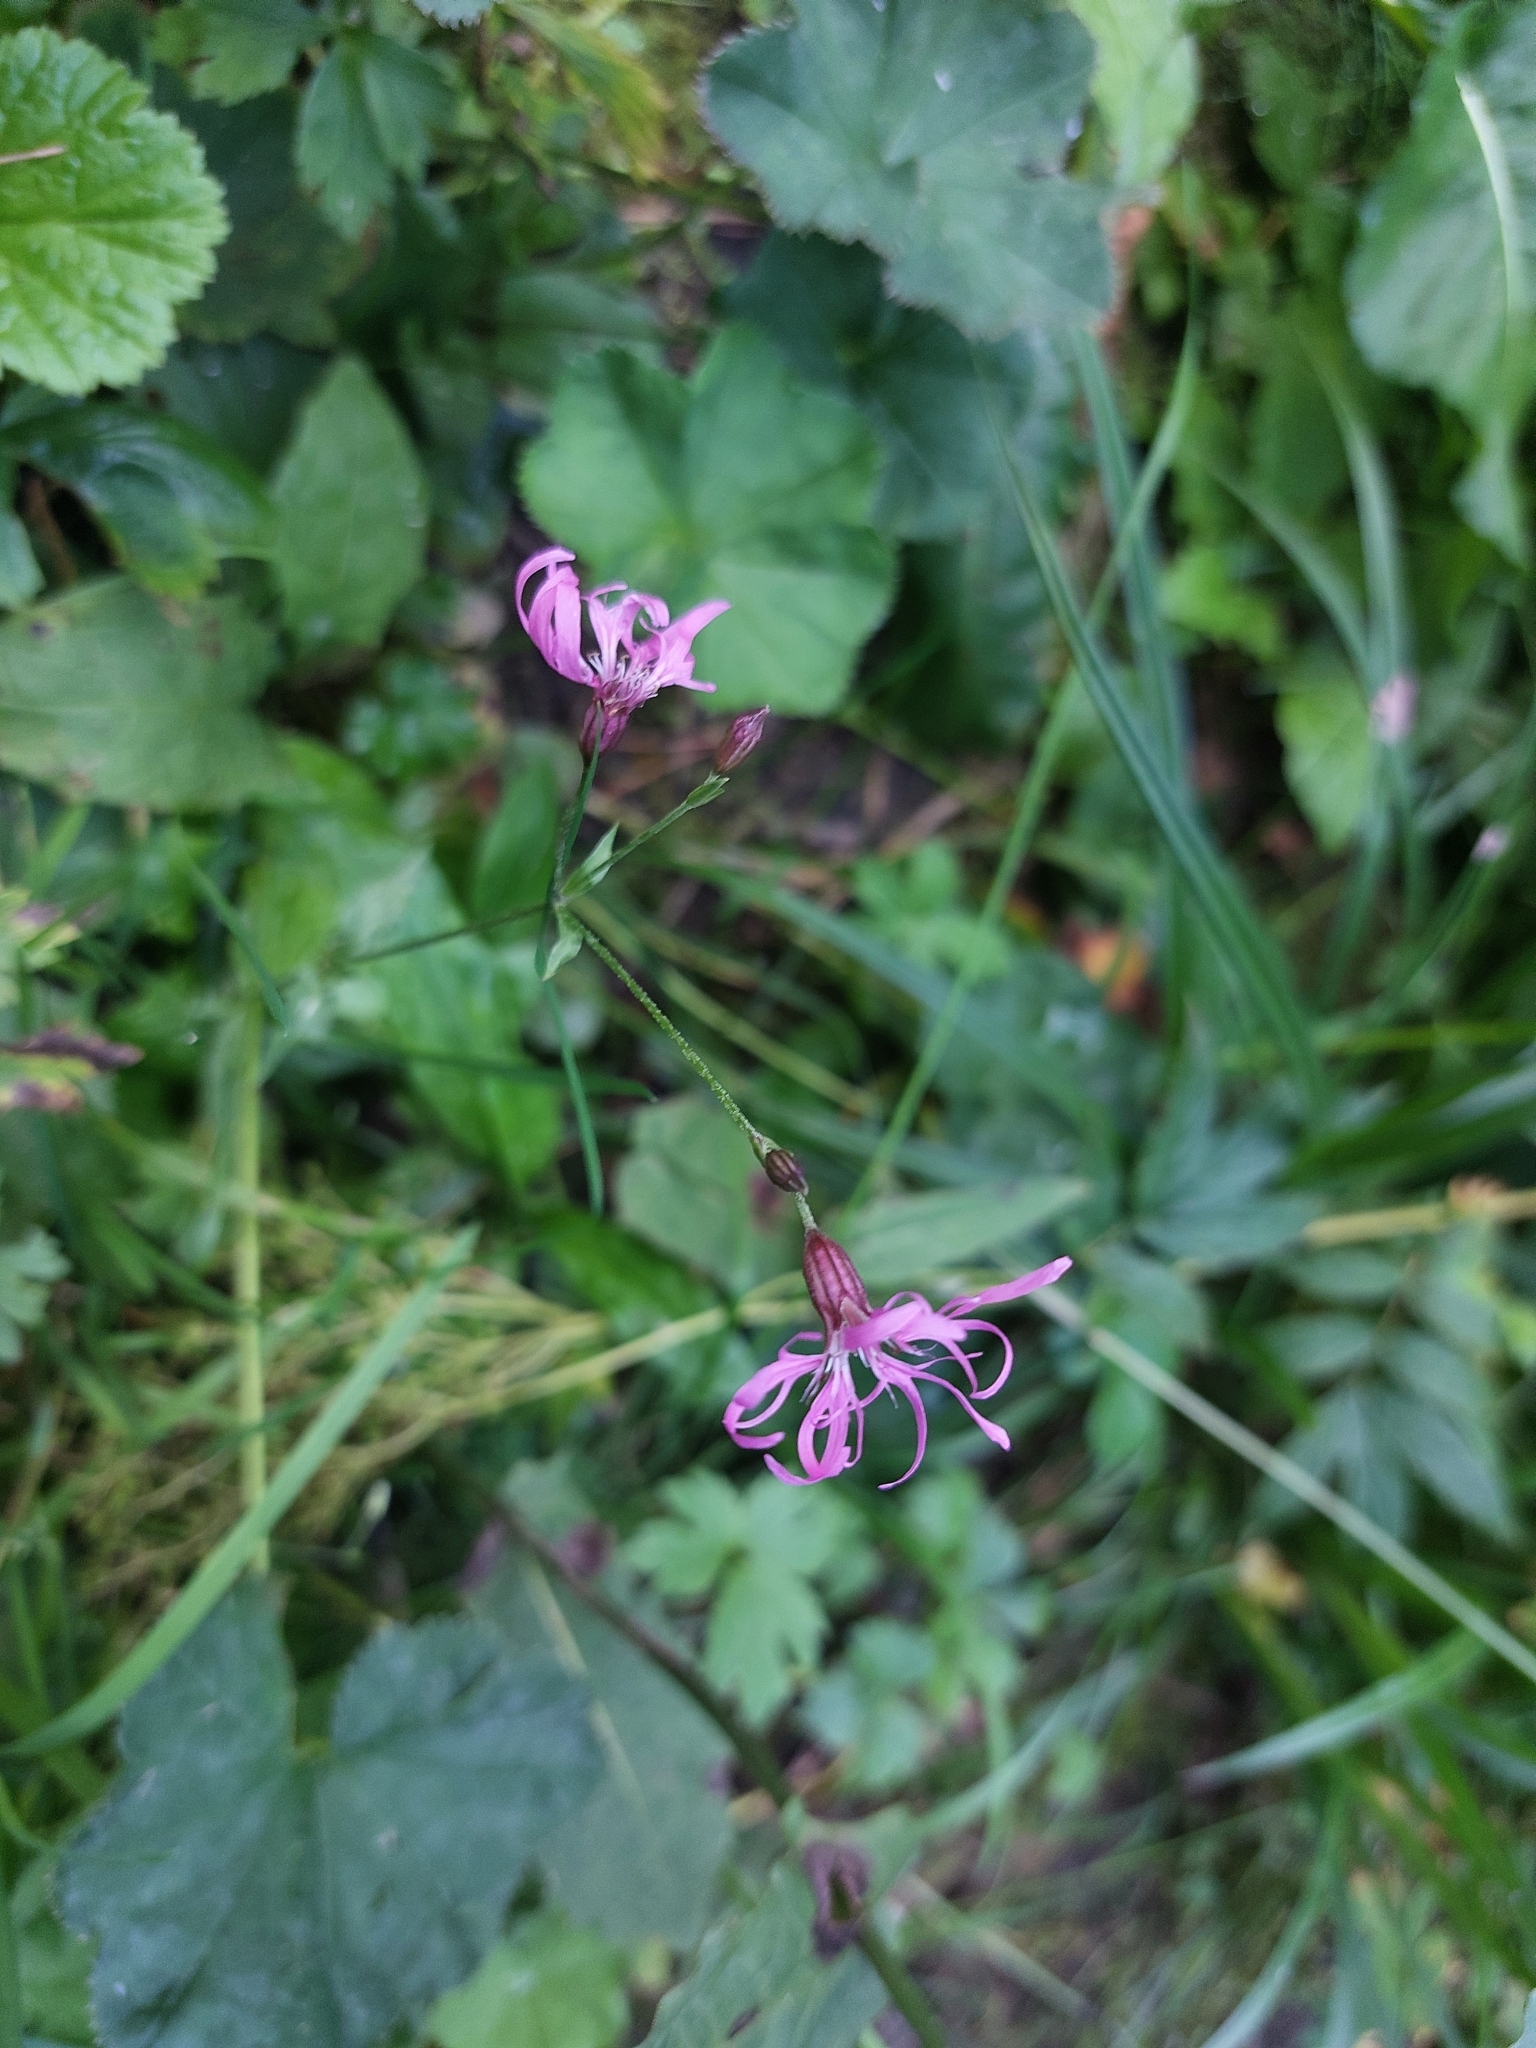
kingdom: Plantae
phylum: Tracheophyta
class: Magnoliopsida
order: Caryophyllales
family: Caryophyllaceae
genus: Silene
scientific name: Silene flos-cuculi
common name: Ragged-robin
